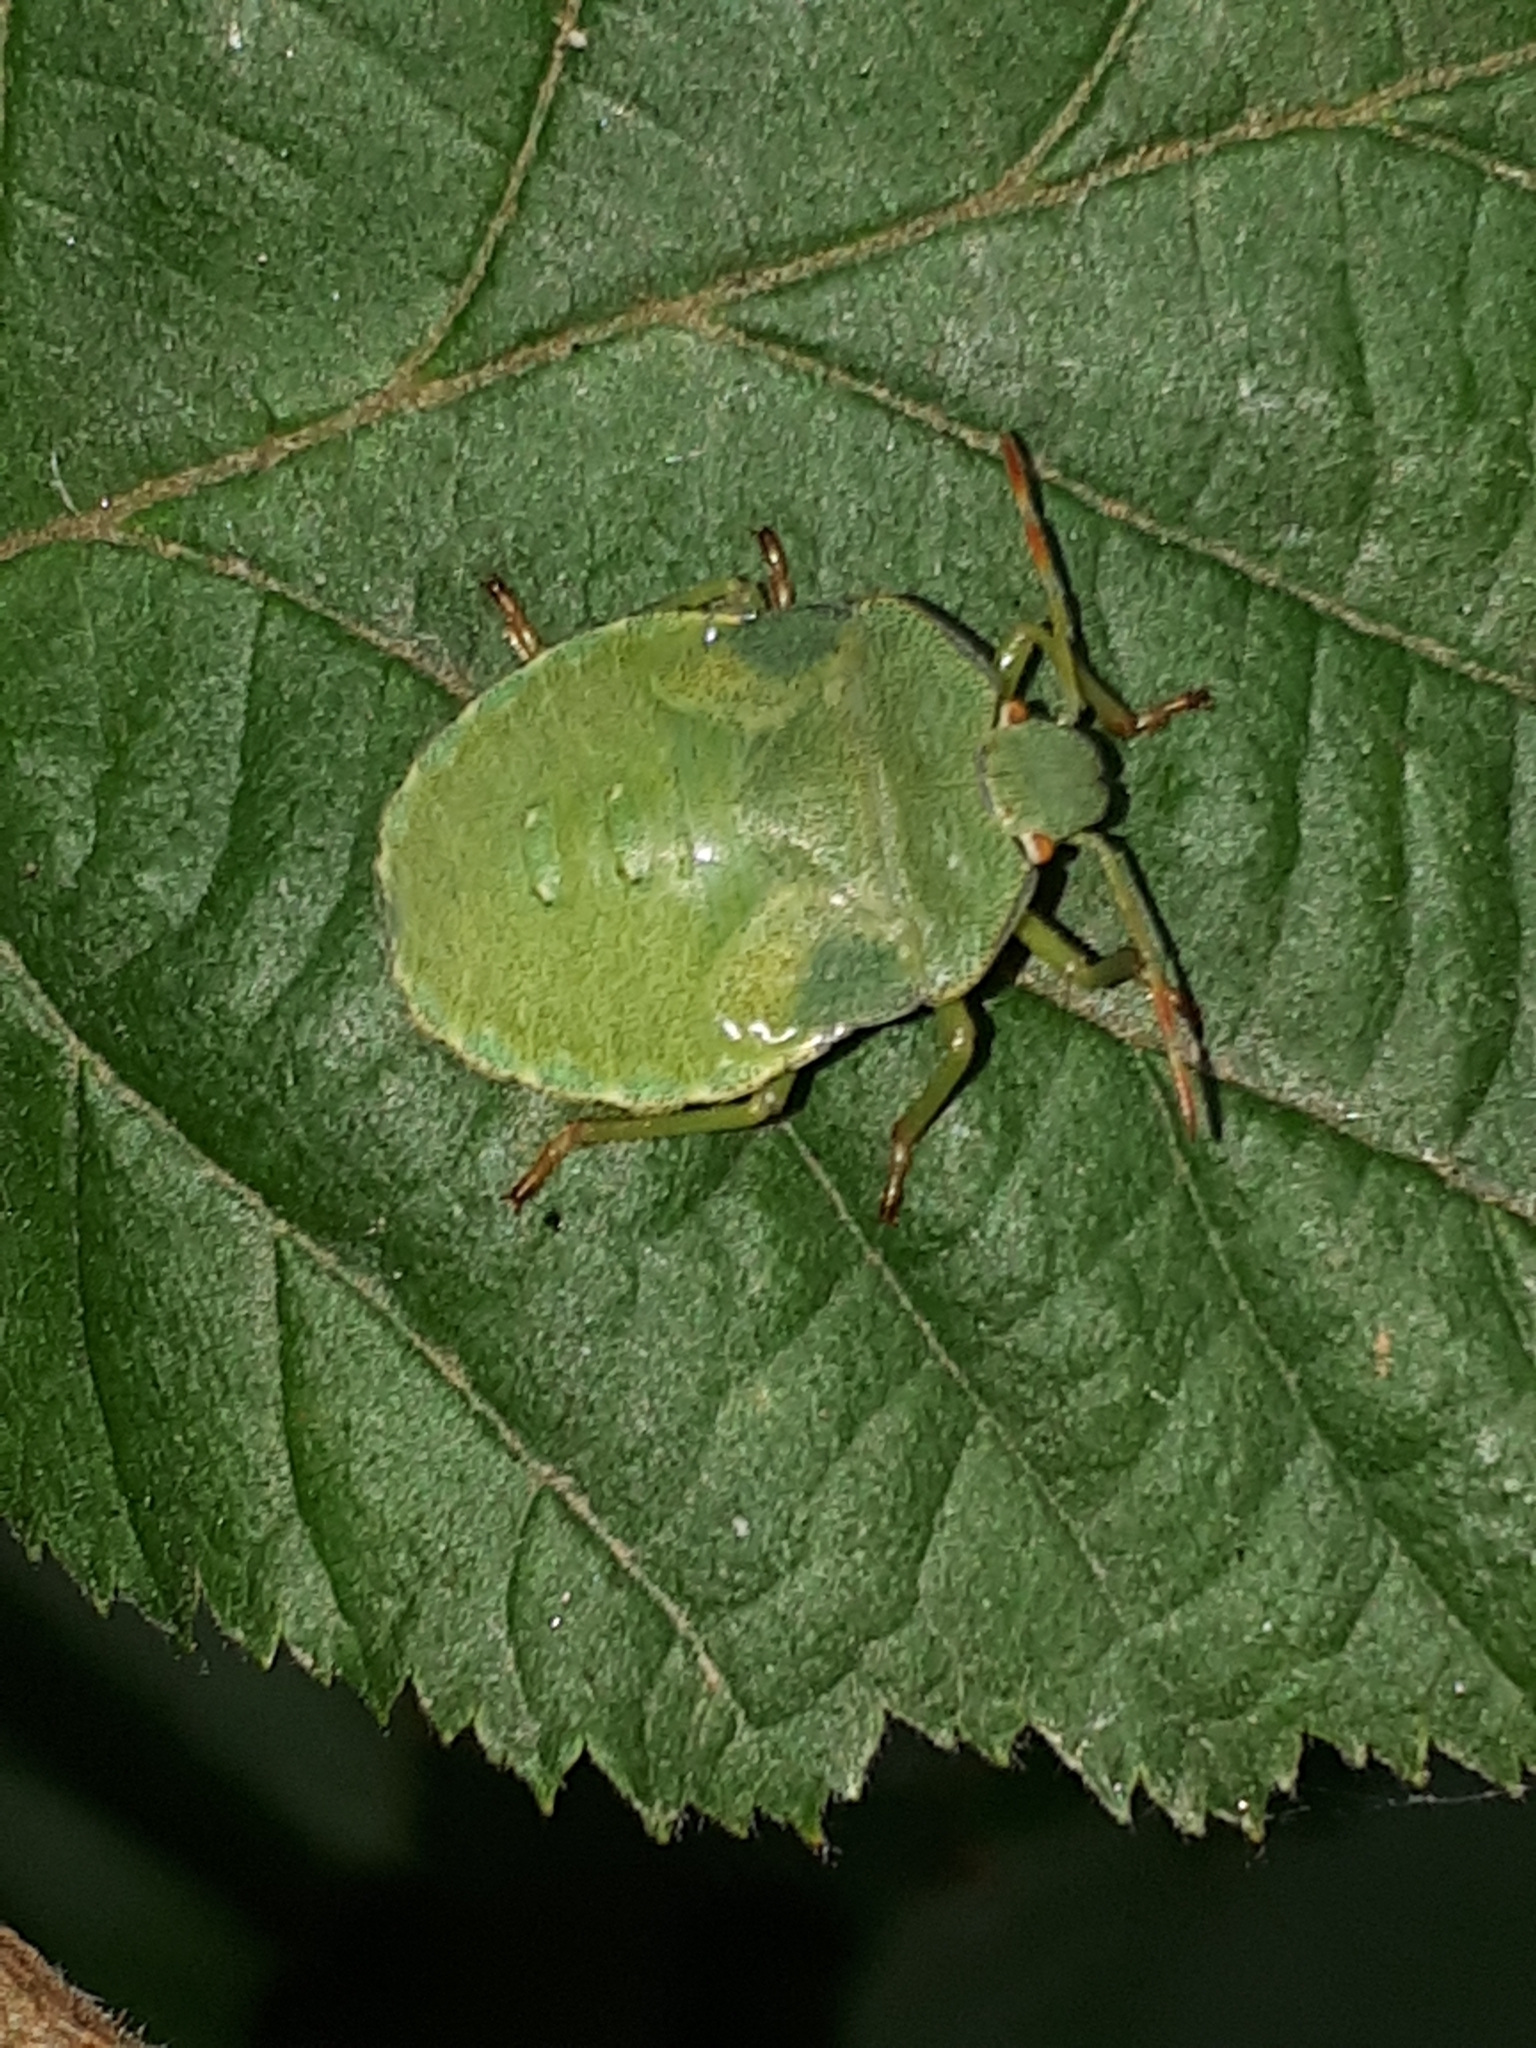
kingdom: Animalia
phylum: Arthropoda
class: Insecta
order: Hemiptera
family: Pentatomidae
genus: Palomena
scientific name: Palomena prasina
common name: Green shieldbug
